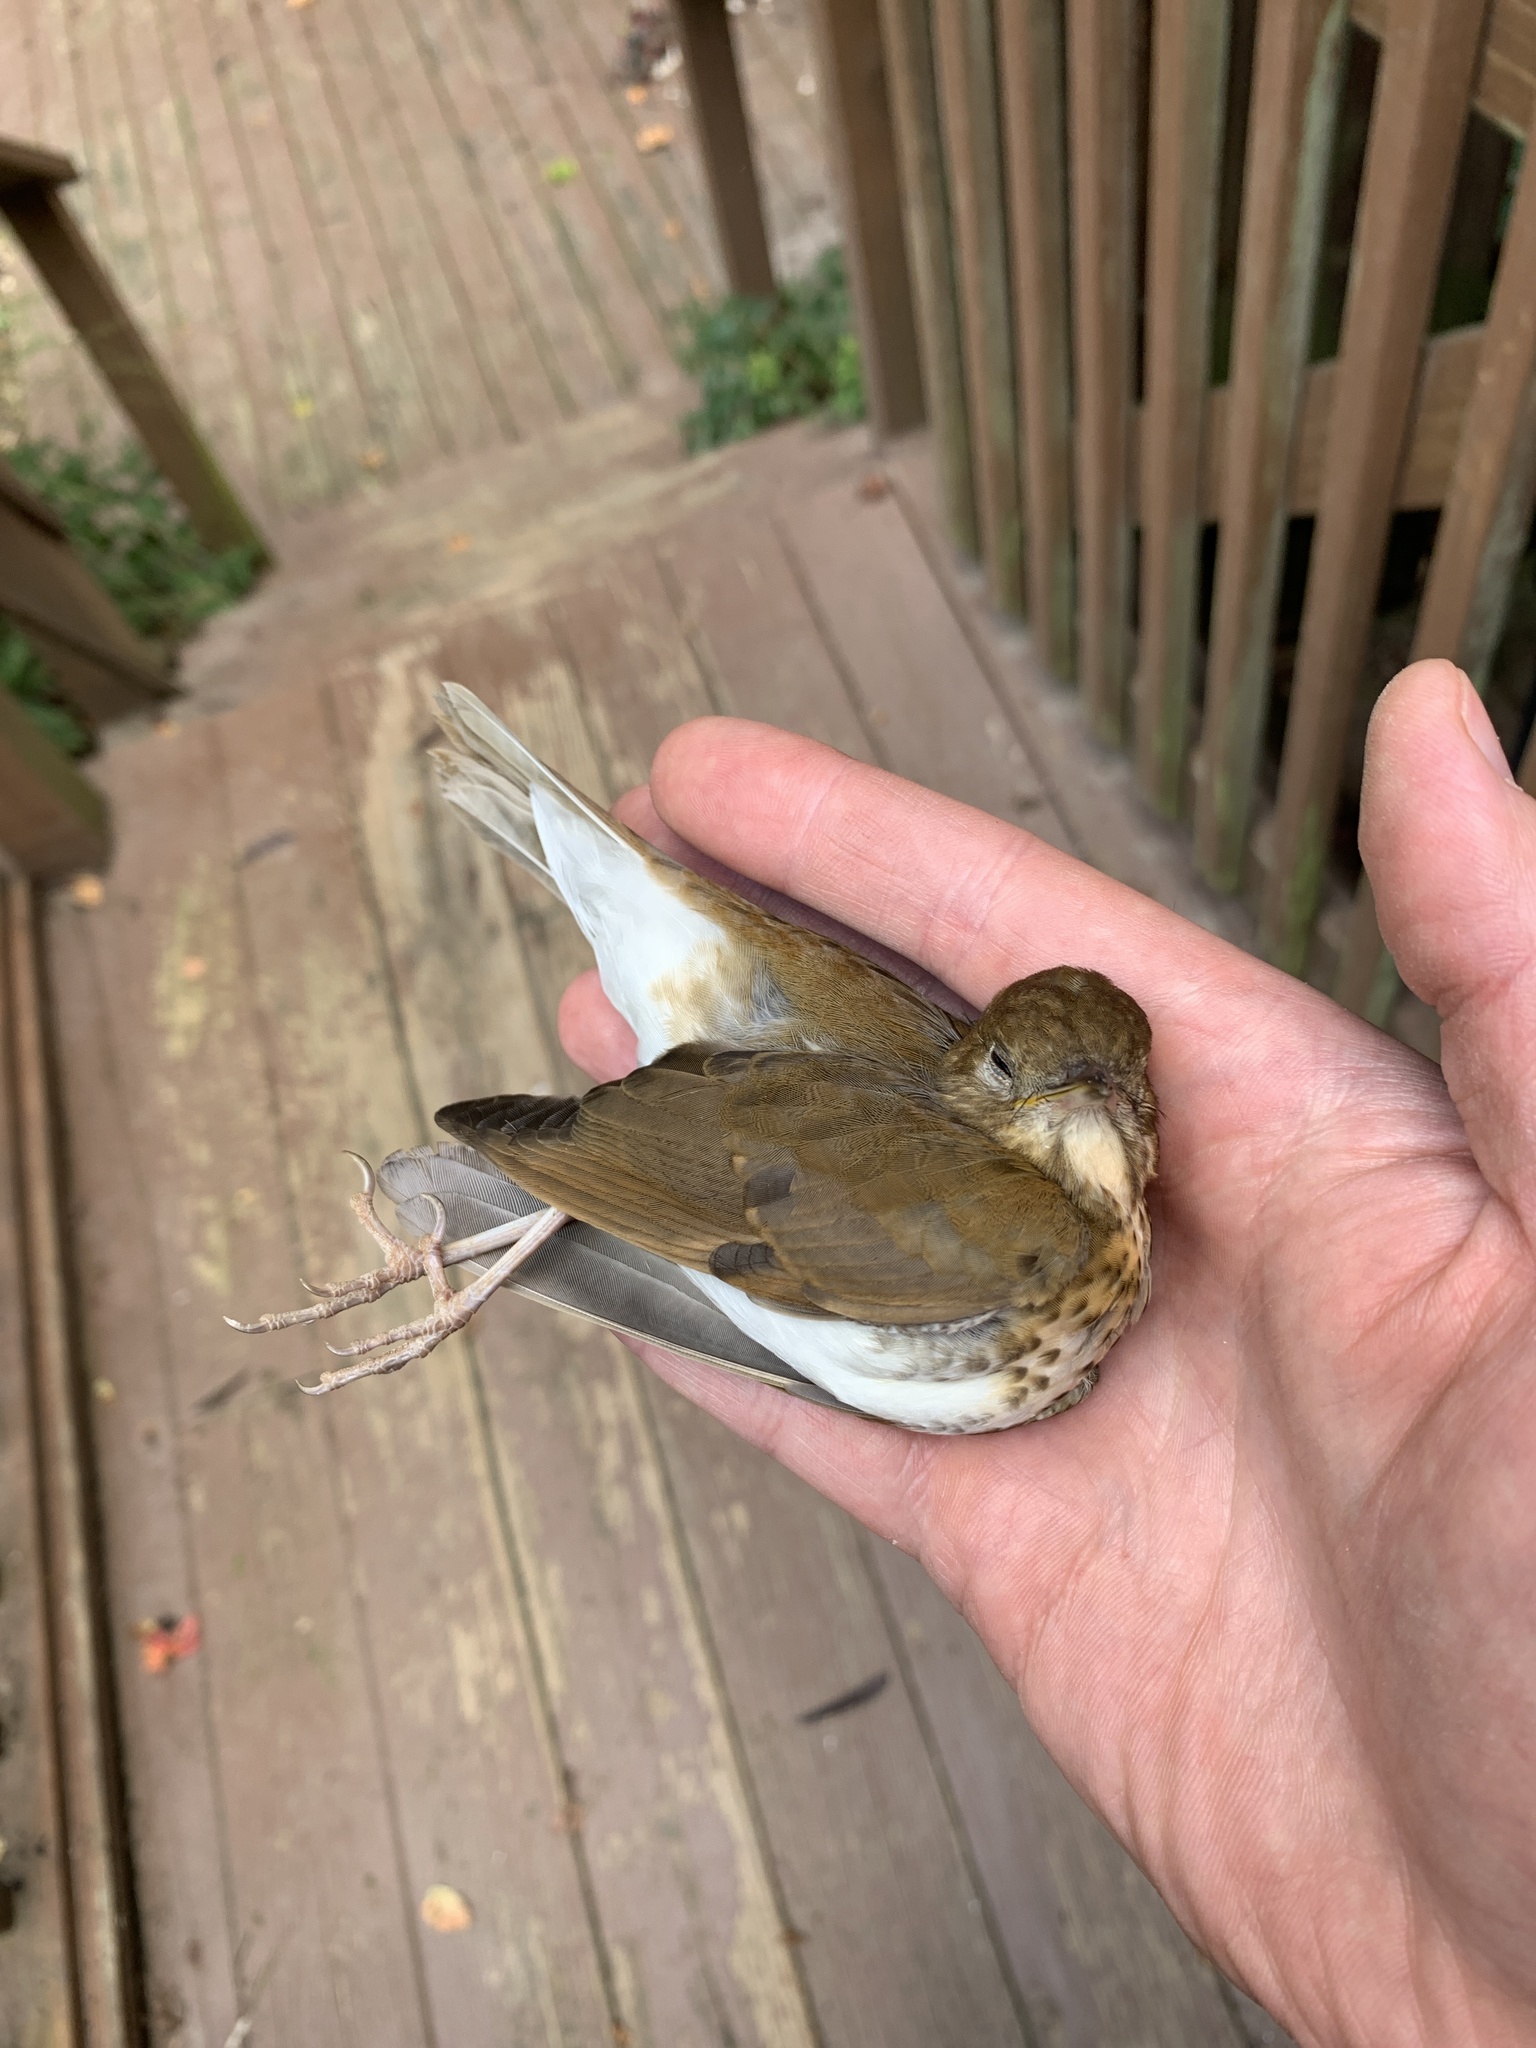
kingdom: Animalia
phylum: Chordata
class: Aves
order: Passeriformes
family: Turdidae
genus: Catharus
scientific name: Catharus fuscescens
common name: Veery
